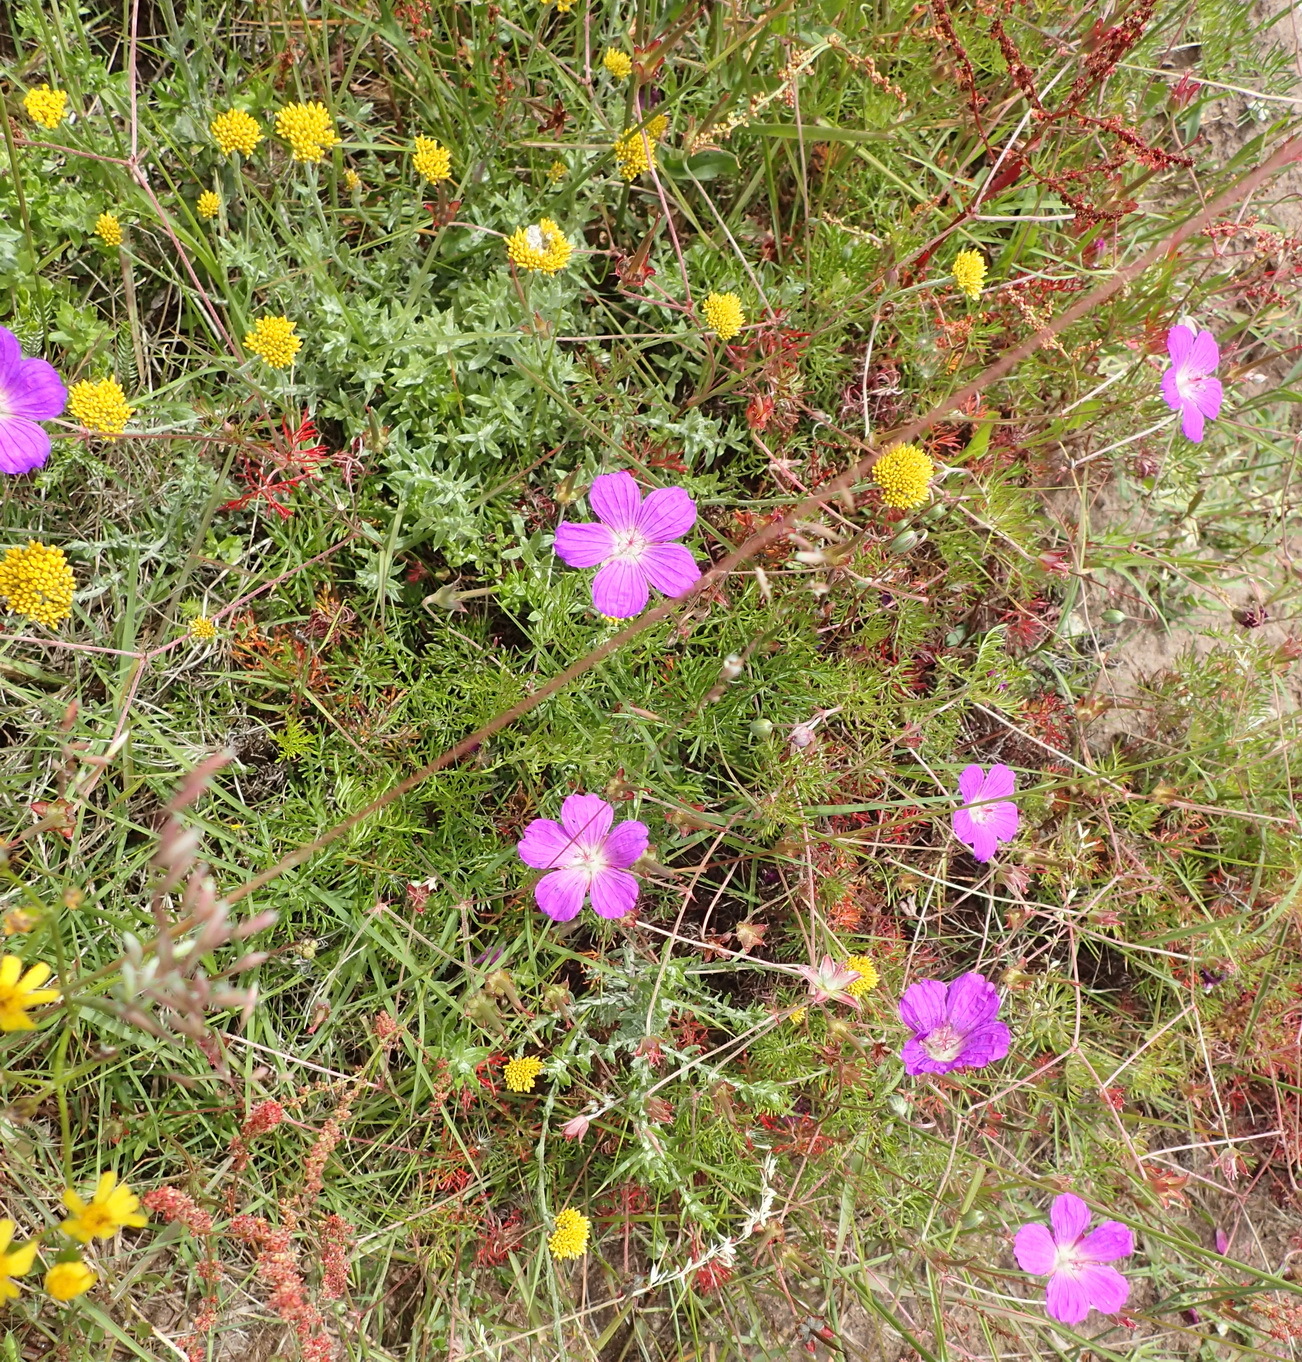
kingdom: Plantae
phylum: Tracheophyta
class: Magnoliopsida
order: Geraniales
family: Geraniaceae
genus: Geranium
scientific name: Geranium incanum
